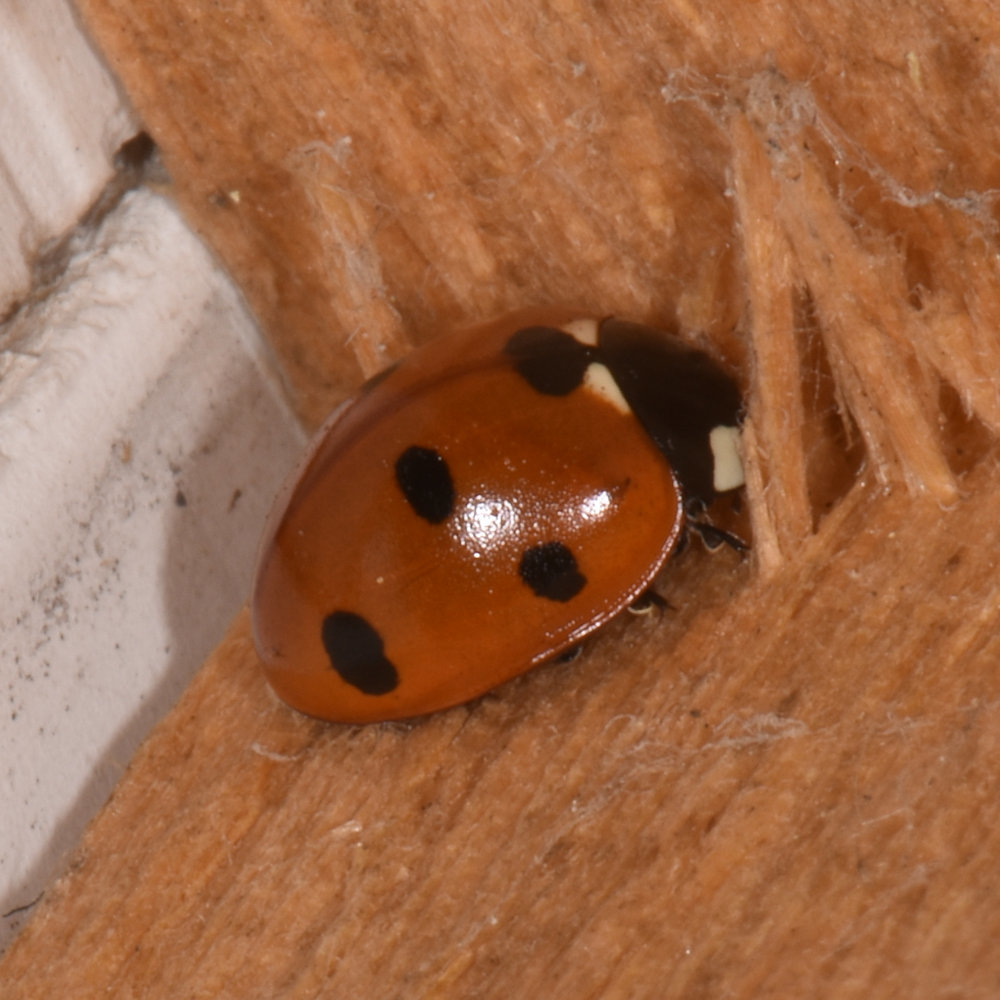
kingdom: Animalia
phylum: Arthropoda
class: Insecta
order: Coleoptera
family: Coccinellidae
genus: Coccinella
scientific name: Coccinella septempunctata
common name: Sevenspotted lady beetle
